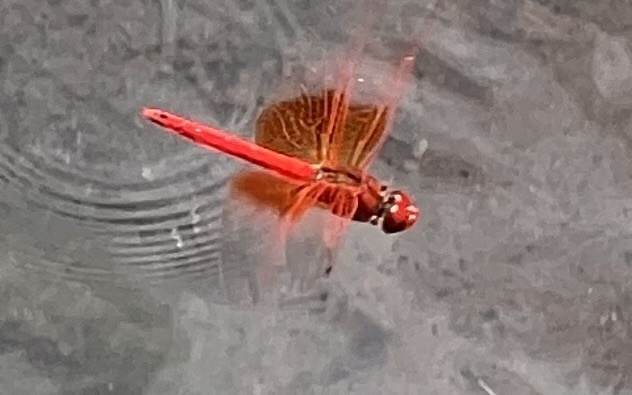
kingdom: Animalia
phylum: Arthropoda
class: Insecta
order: Odonata
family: Libellulidae
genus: Trithemis
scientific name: Trithemis kirbyi
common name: Kirby's dropwing
